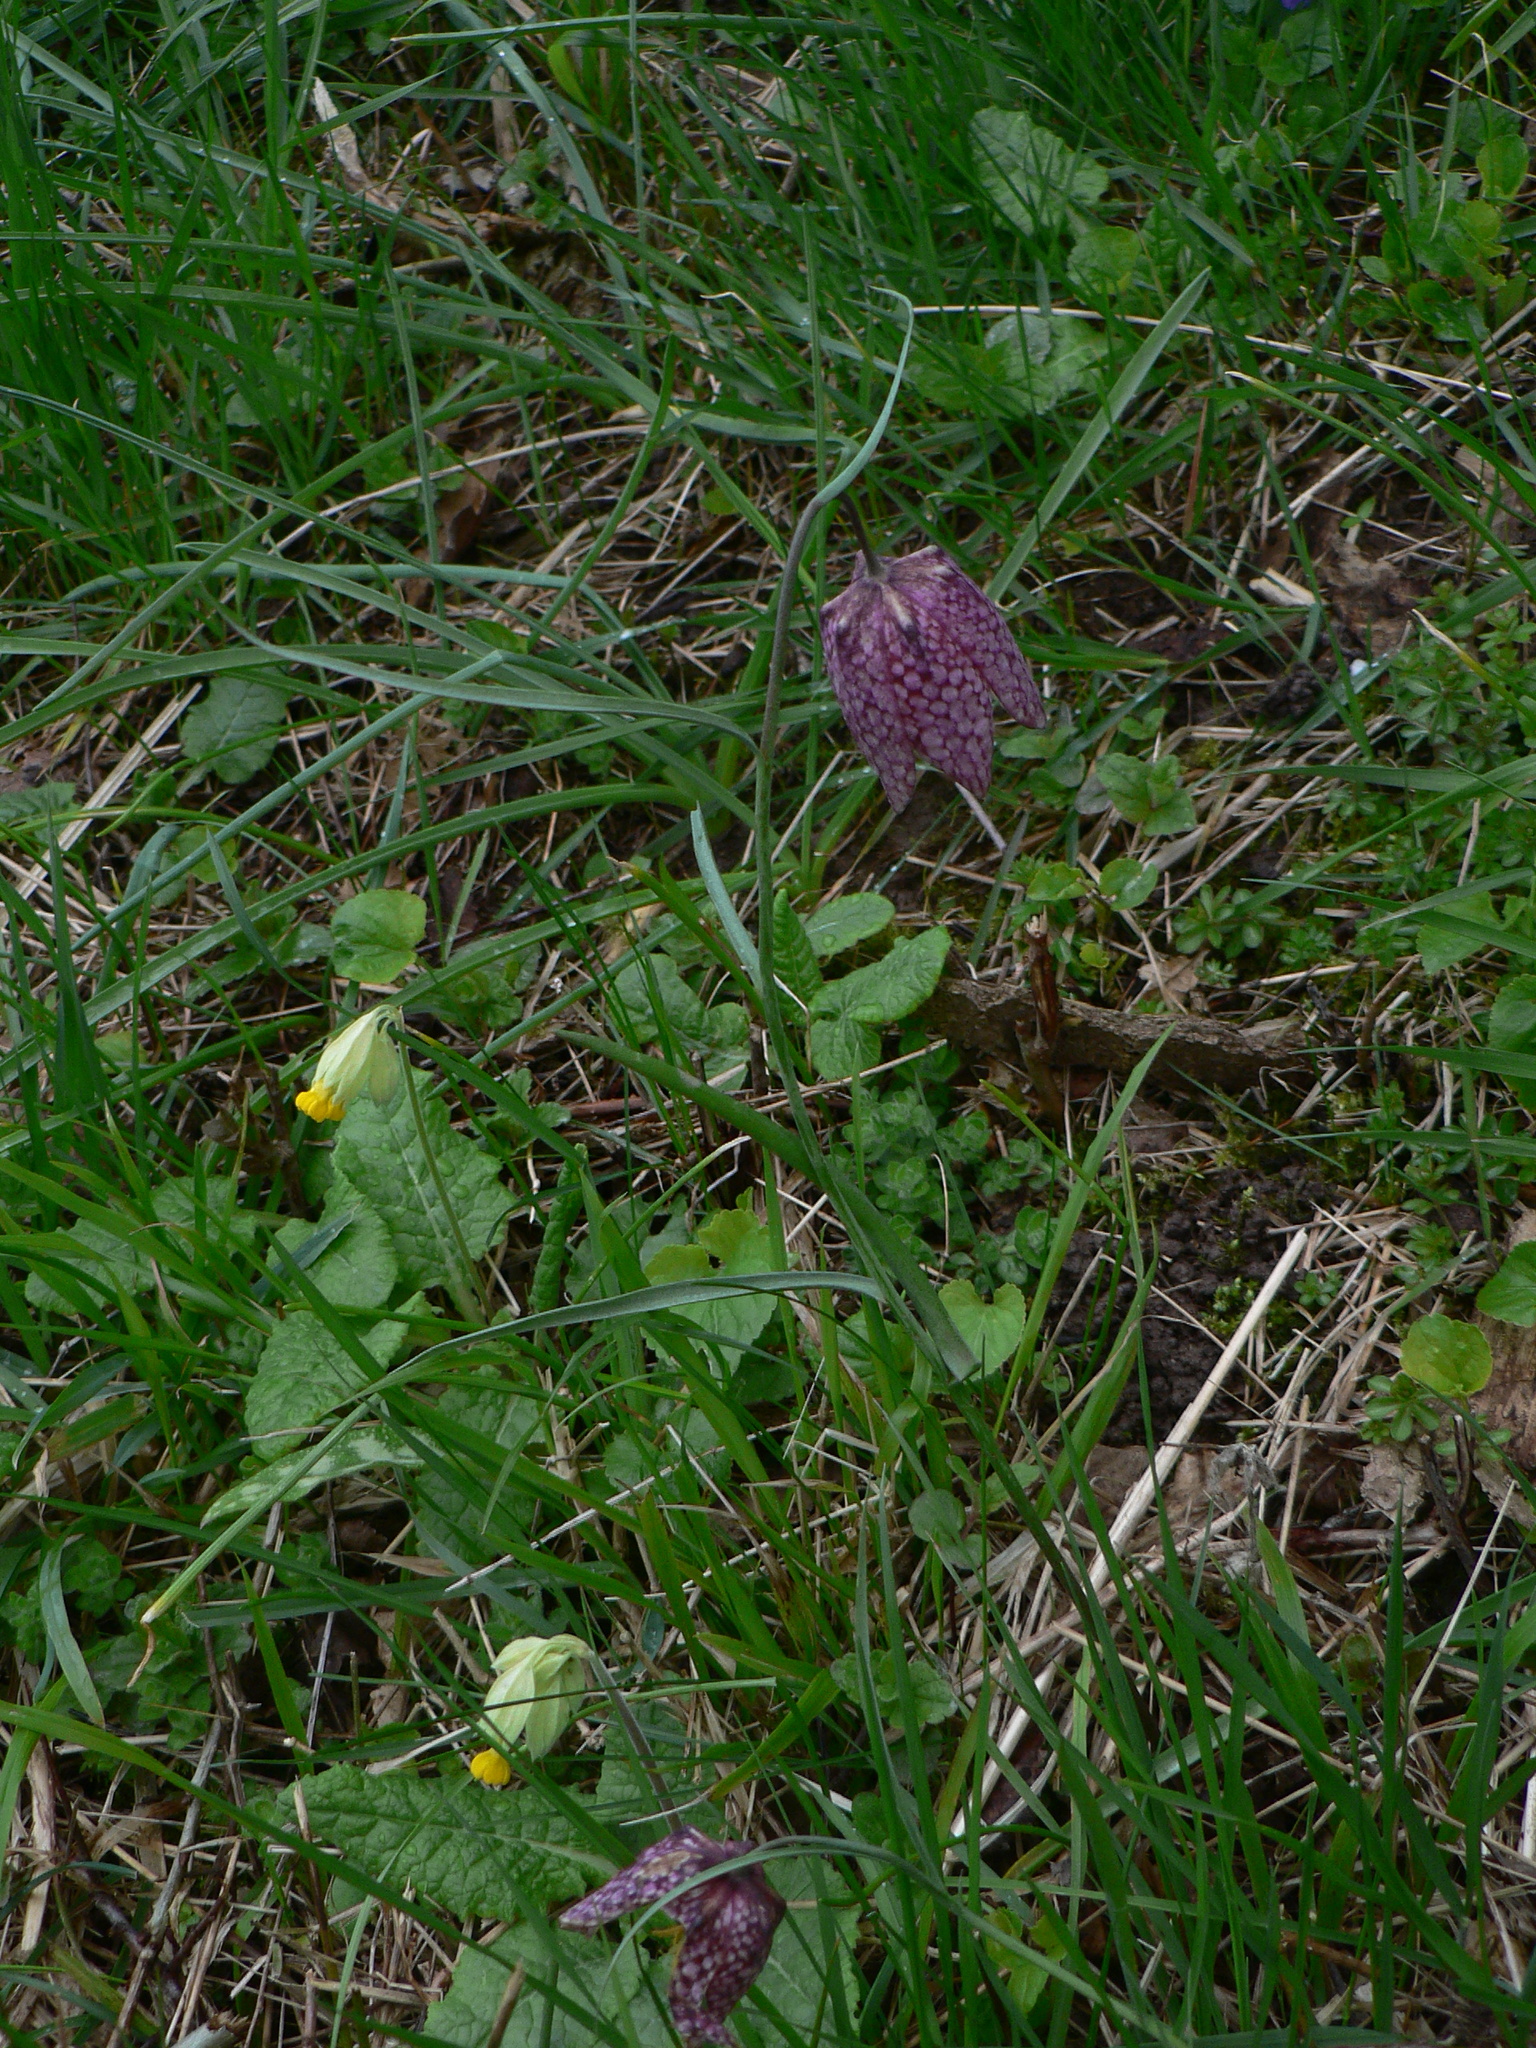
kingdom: Plantae
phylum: Tracheophyta
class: Liliopsida
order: Liliales
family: Liliaceae
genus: Fritillaria
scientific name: Fritillaria meleagris
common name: Fritillary
